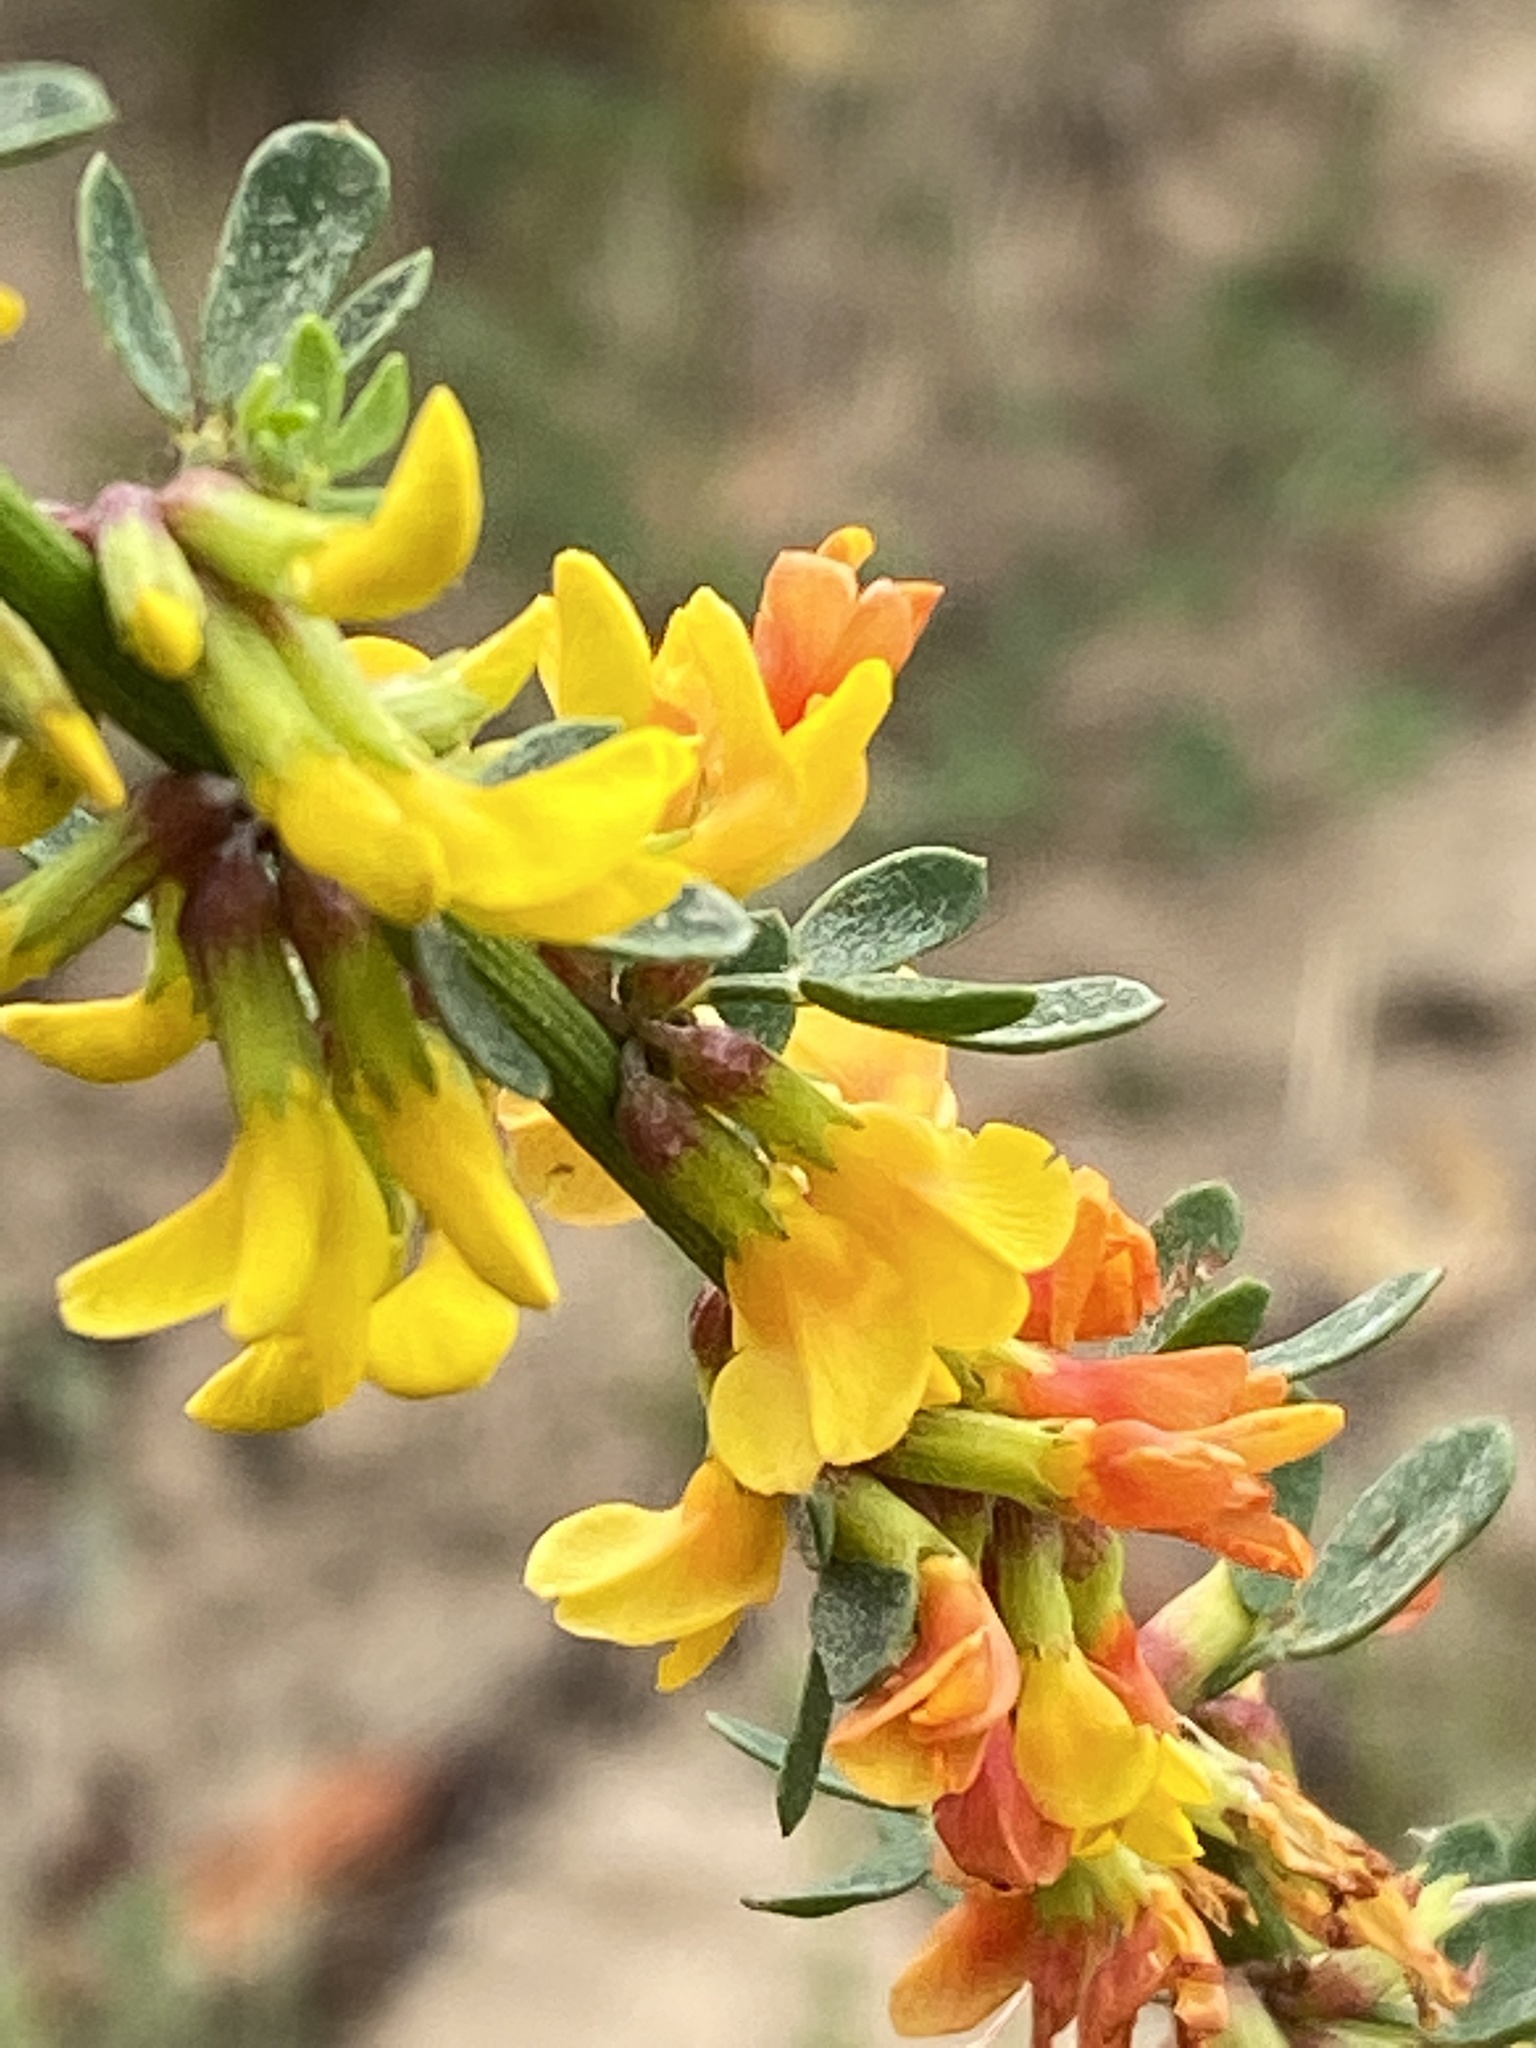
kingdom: Plantae
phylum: Tracheophyta
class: Magnoliopsida
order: Fabales
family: Fabaceae
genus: Acmispon
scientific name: Acmispon glaber
